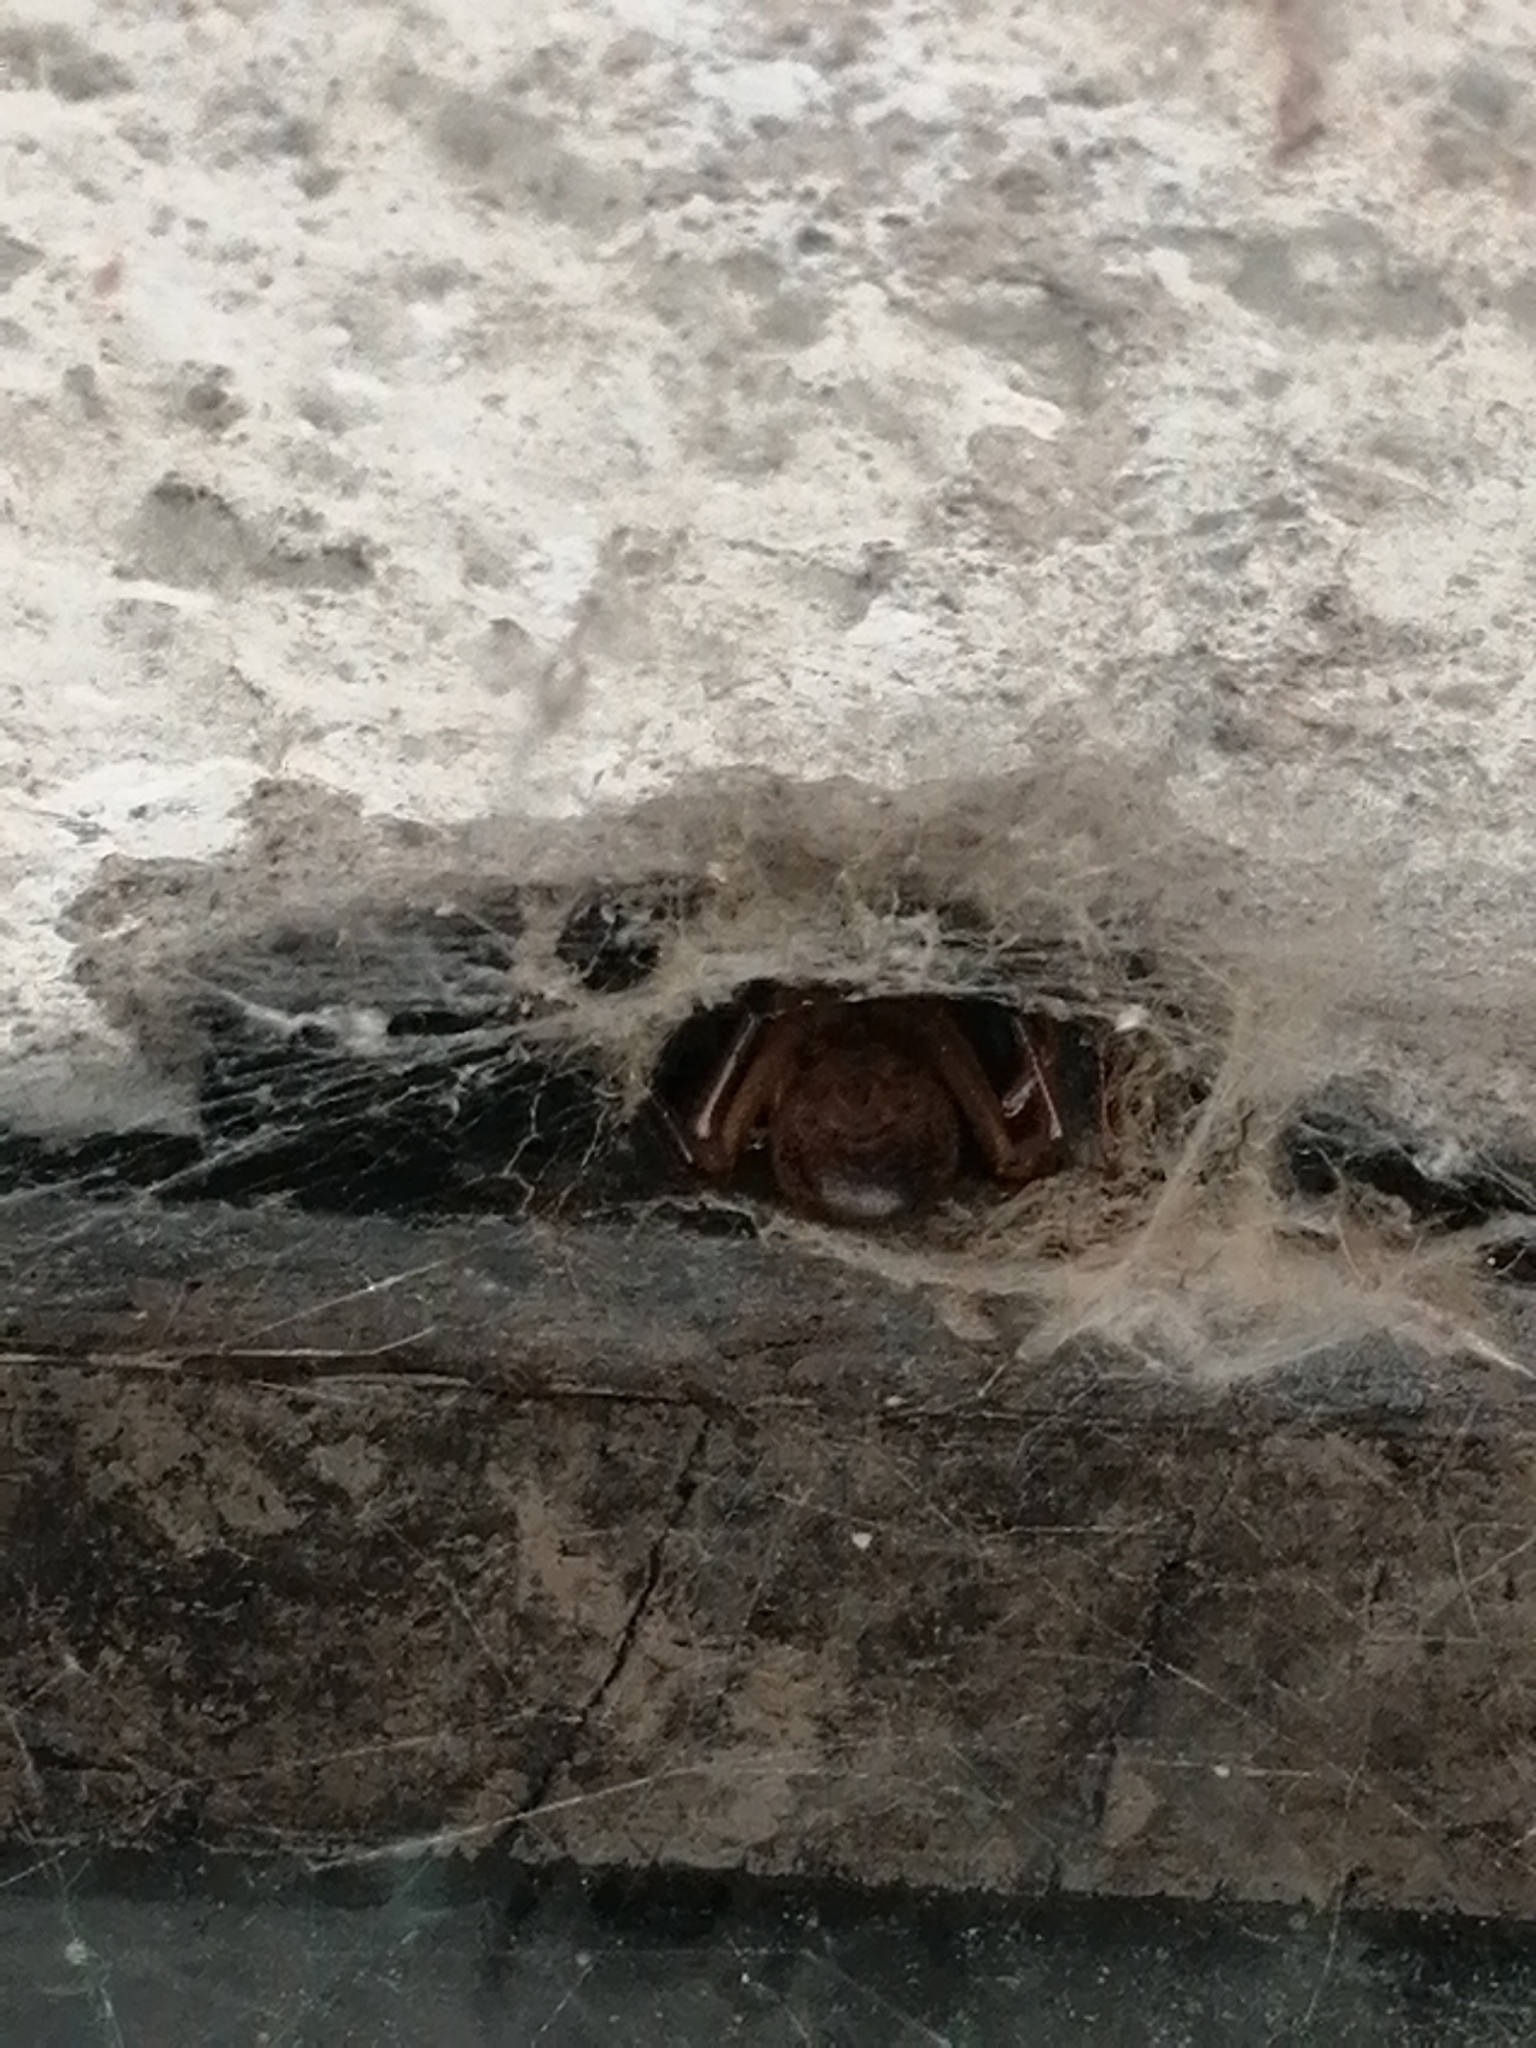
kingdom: Animalia
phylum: Arthropoda
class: Arachnida
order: Araneae
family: Theridiidae
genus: Steatoda
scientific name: Steatoda nobilis
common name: Cobweb weaver
